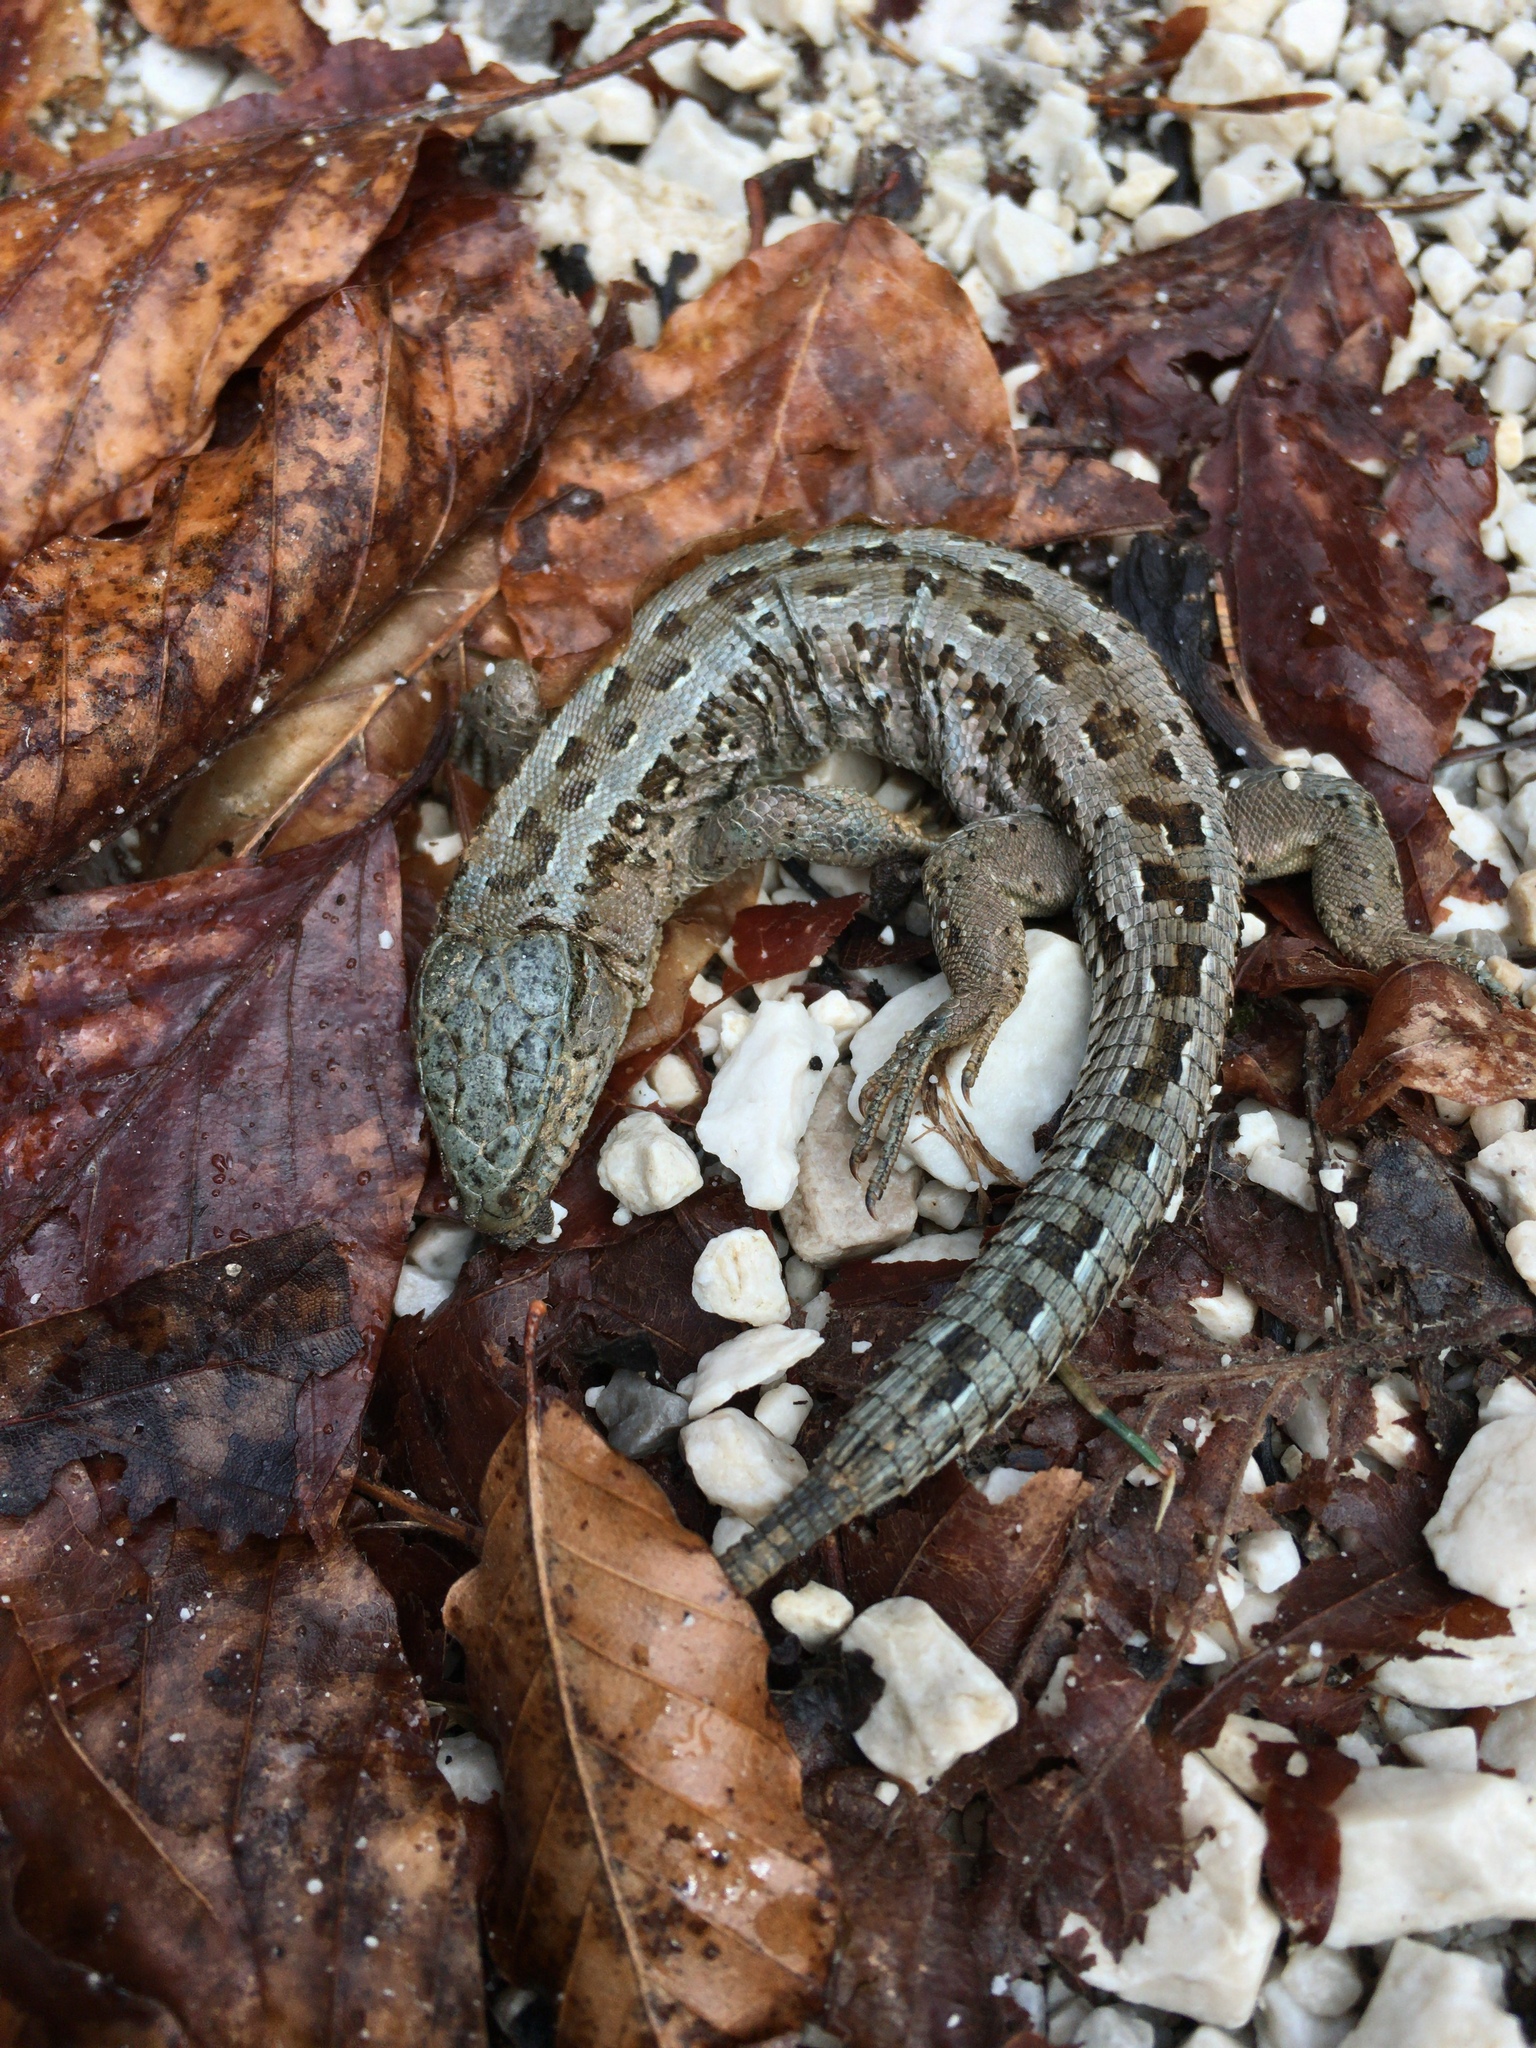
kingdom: Animalia
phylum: Chordata
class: Squamata
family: Lacertidae
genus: Lacerta
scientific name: Lacerta agilis
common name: Sand lizard
